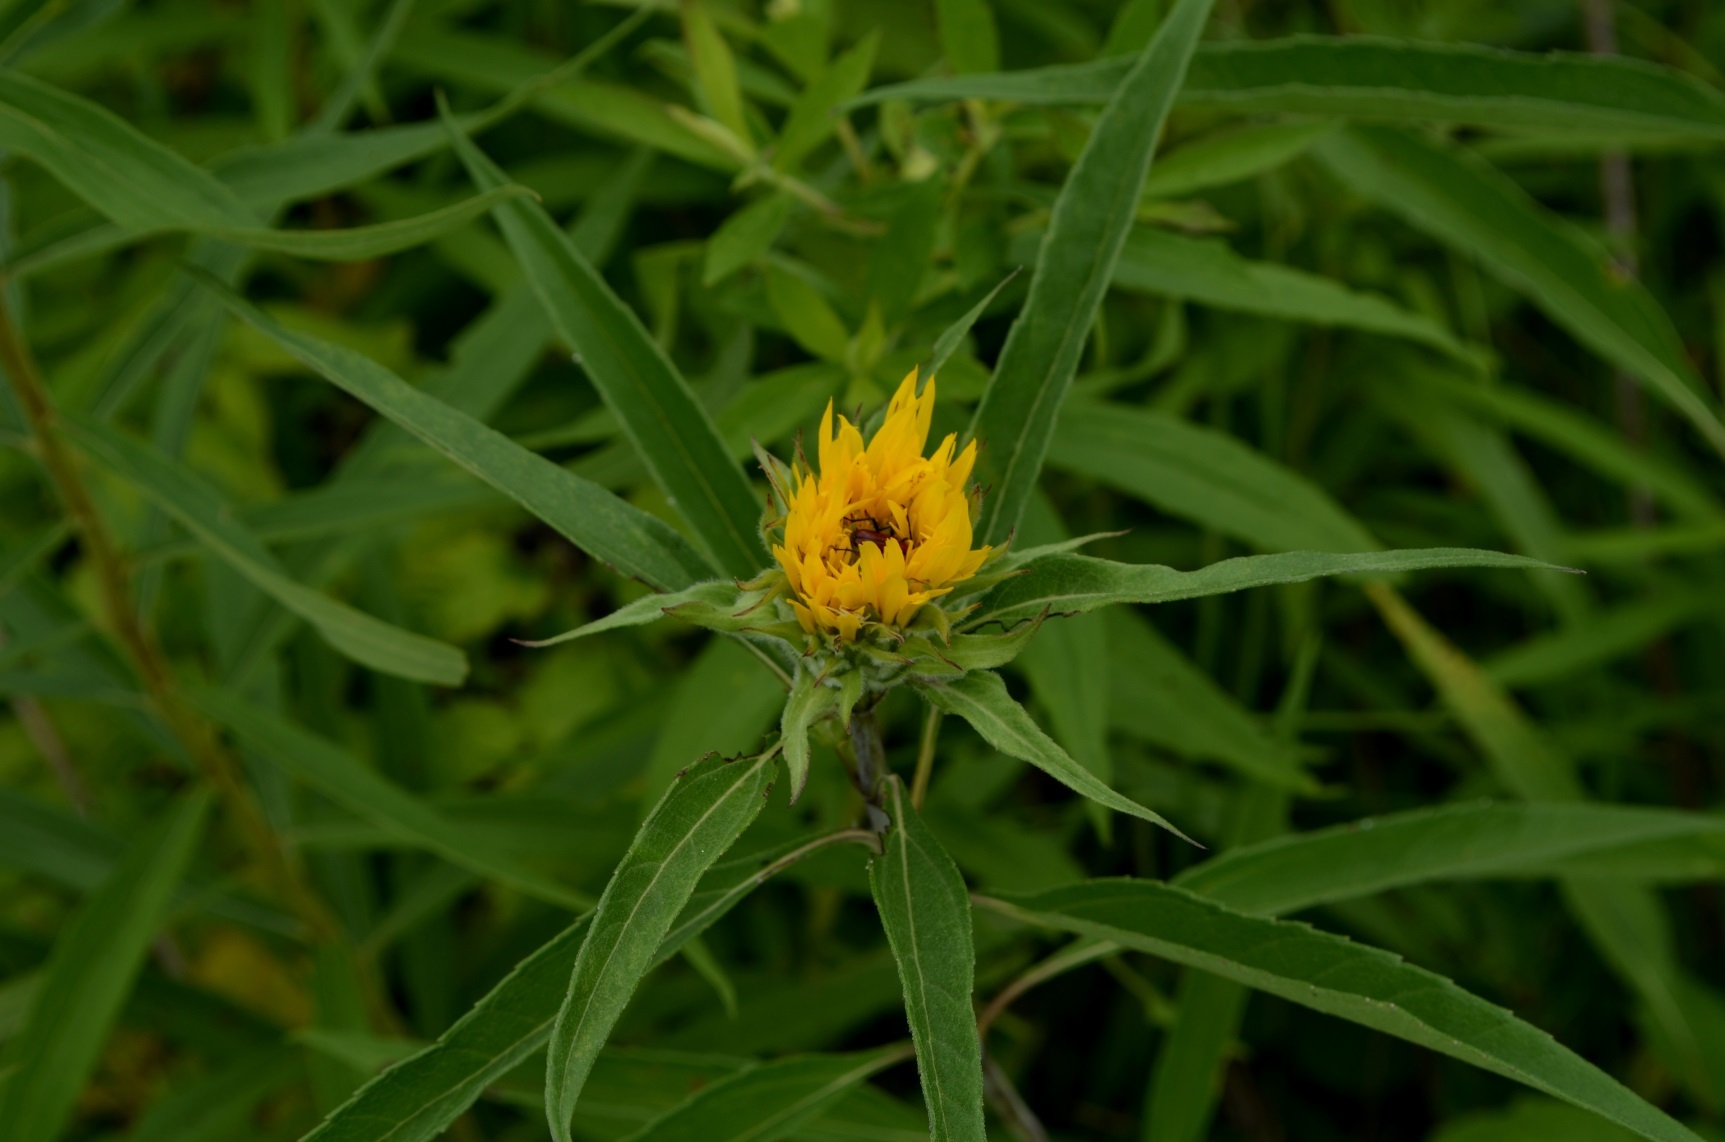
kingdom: Plantae
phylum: Tracheophyta
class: Magnoliopsida
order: Asterales
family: Asteraceae
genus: Helianthus
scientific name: Helianthus grosseserratus
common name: Sawtooth sunflower
